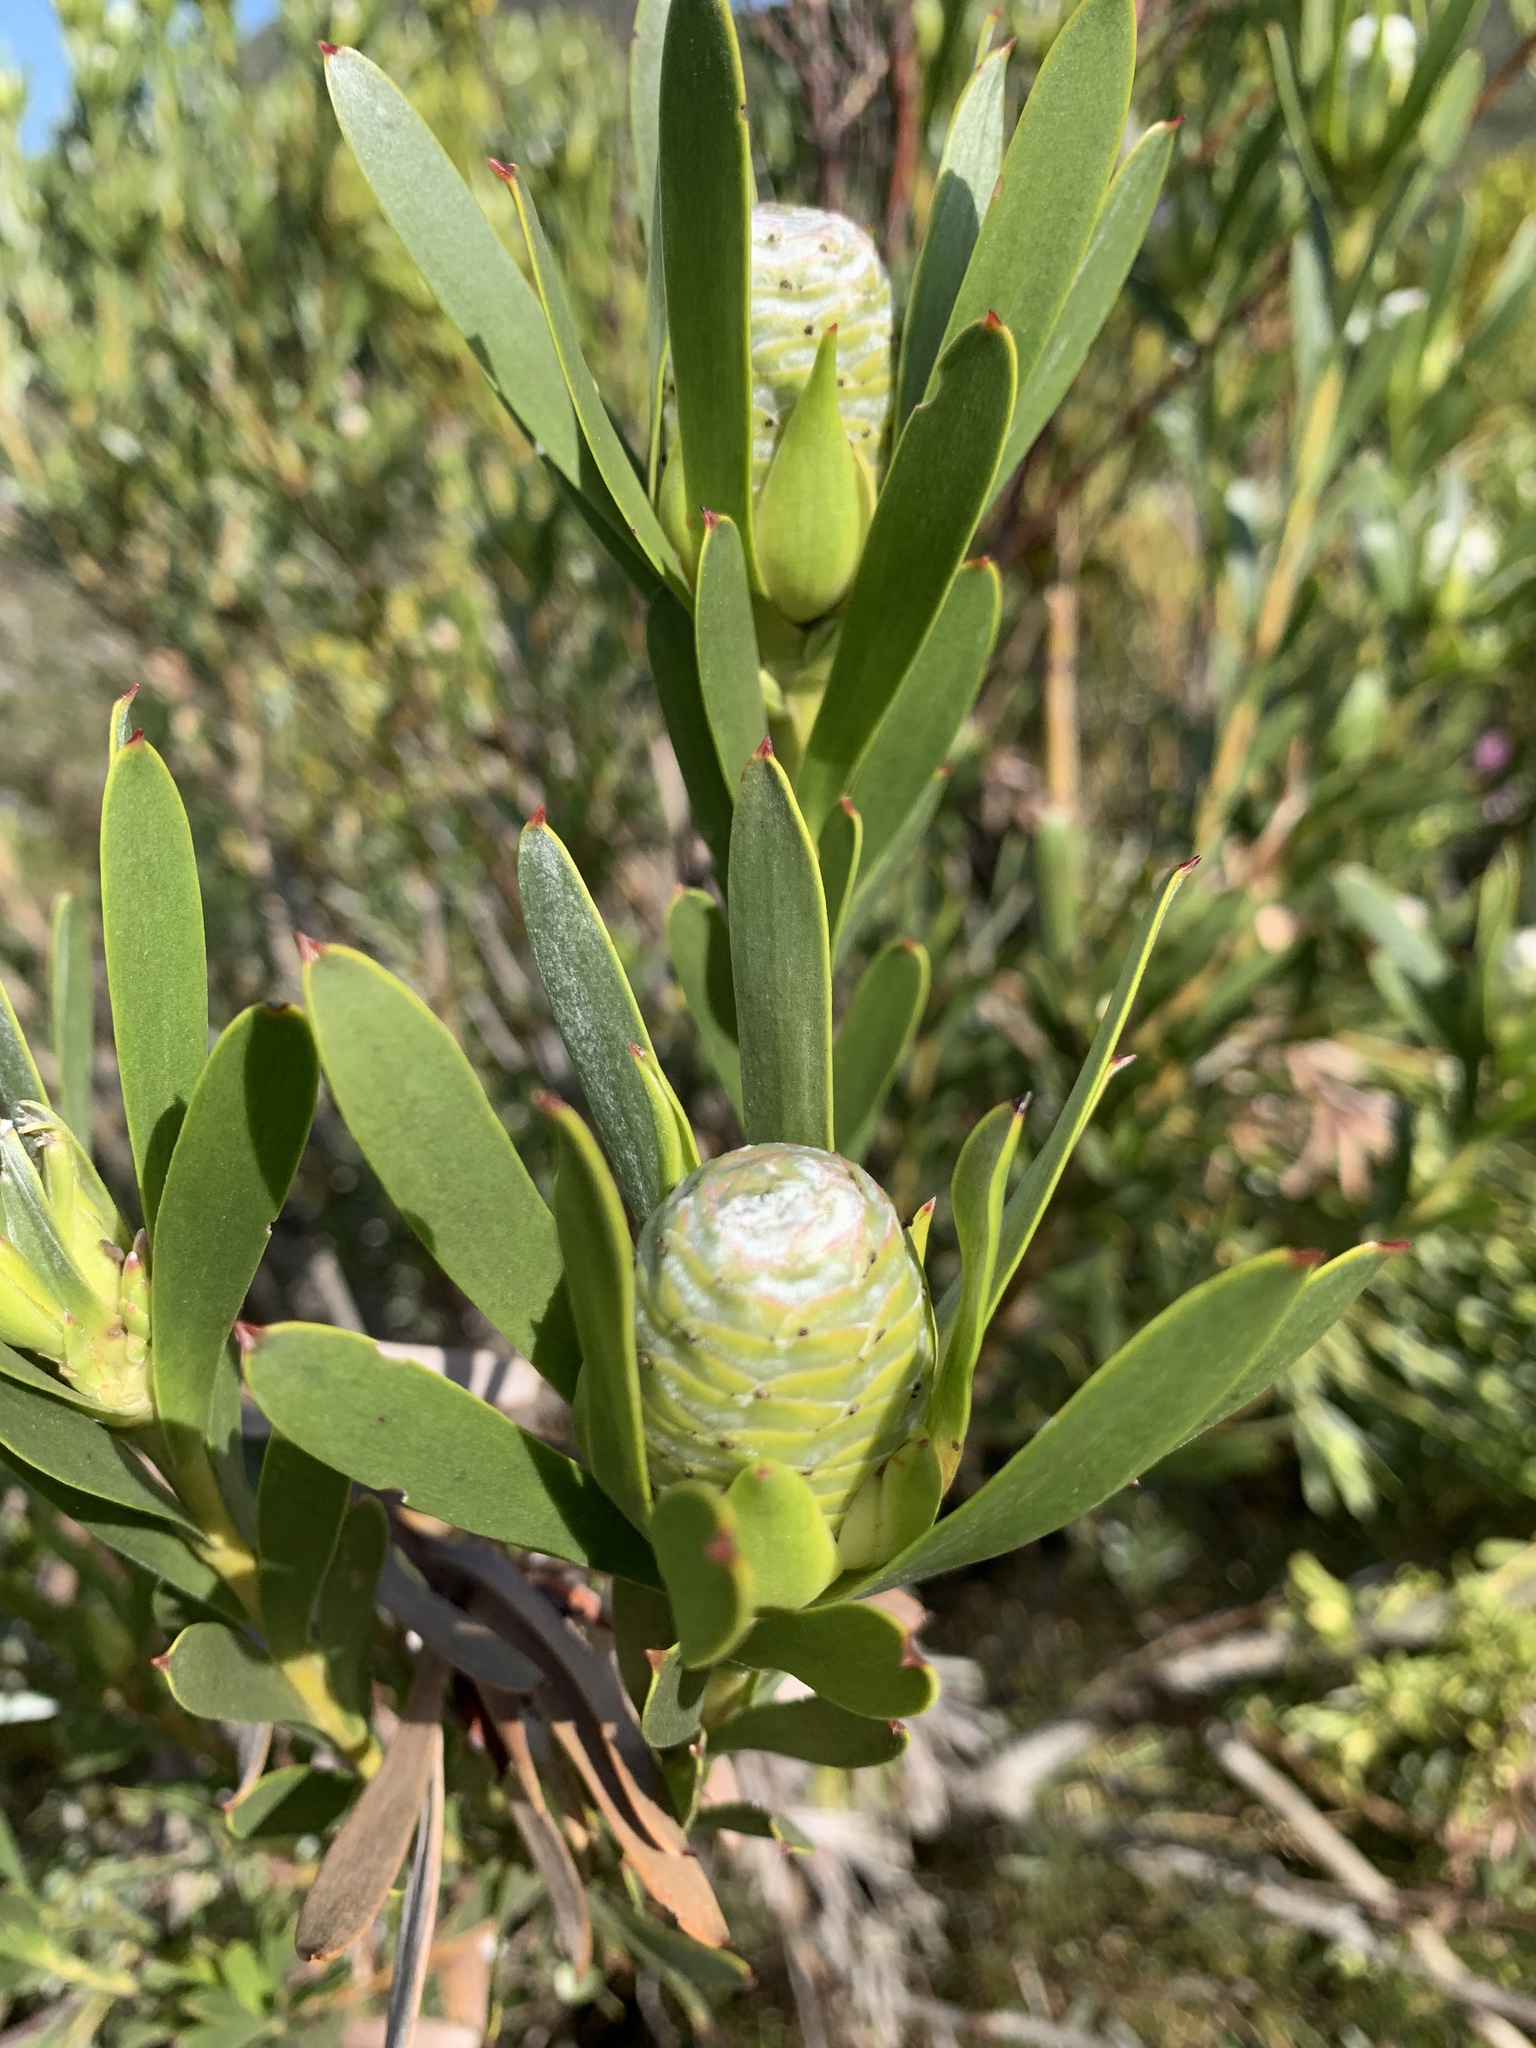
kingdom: Plantae
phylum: Tracheophyta
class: Magnoliopsida
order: Proteales
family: Proteaceae
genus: Leucadendron
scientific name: Leucadendron meridianum
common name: Limestone conebush
